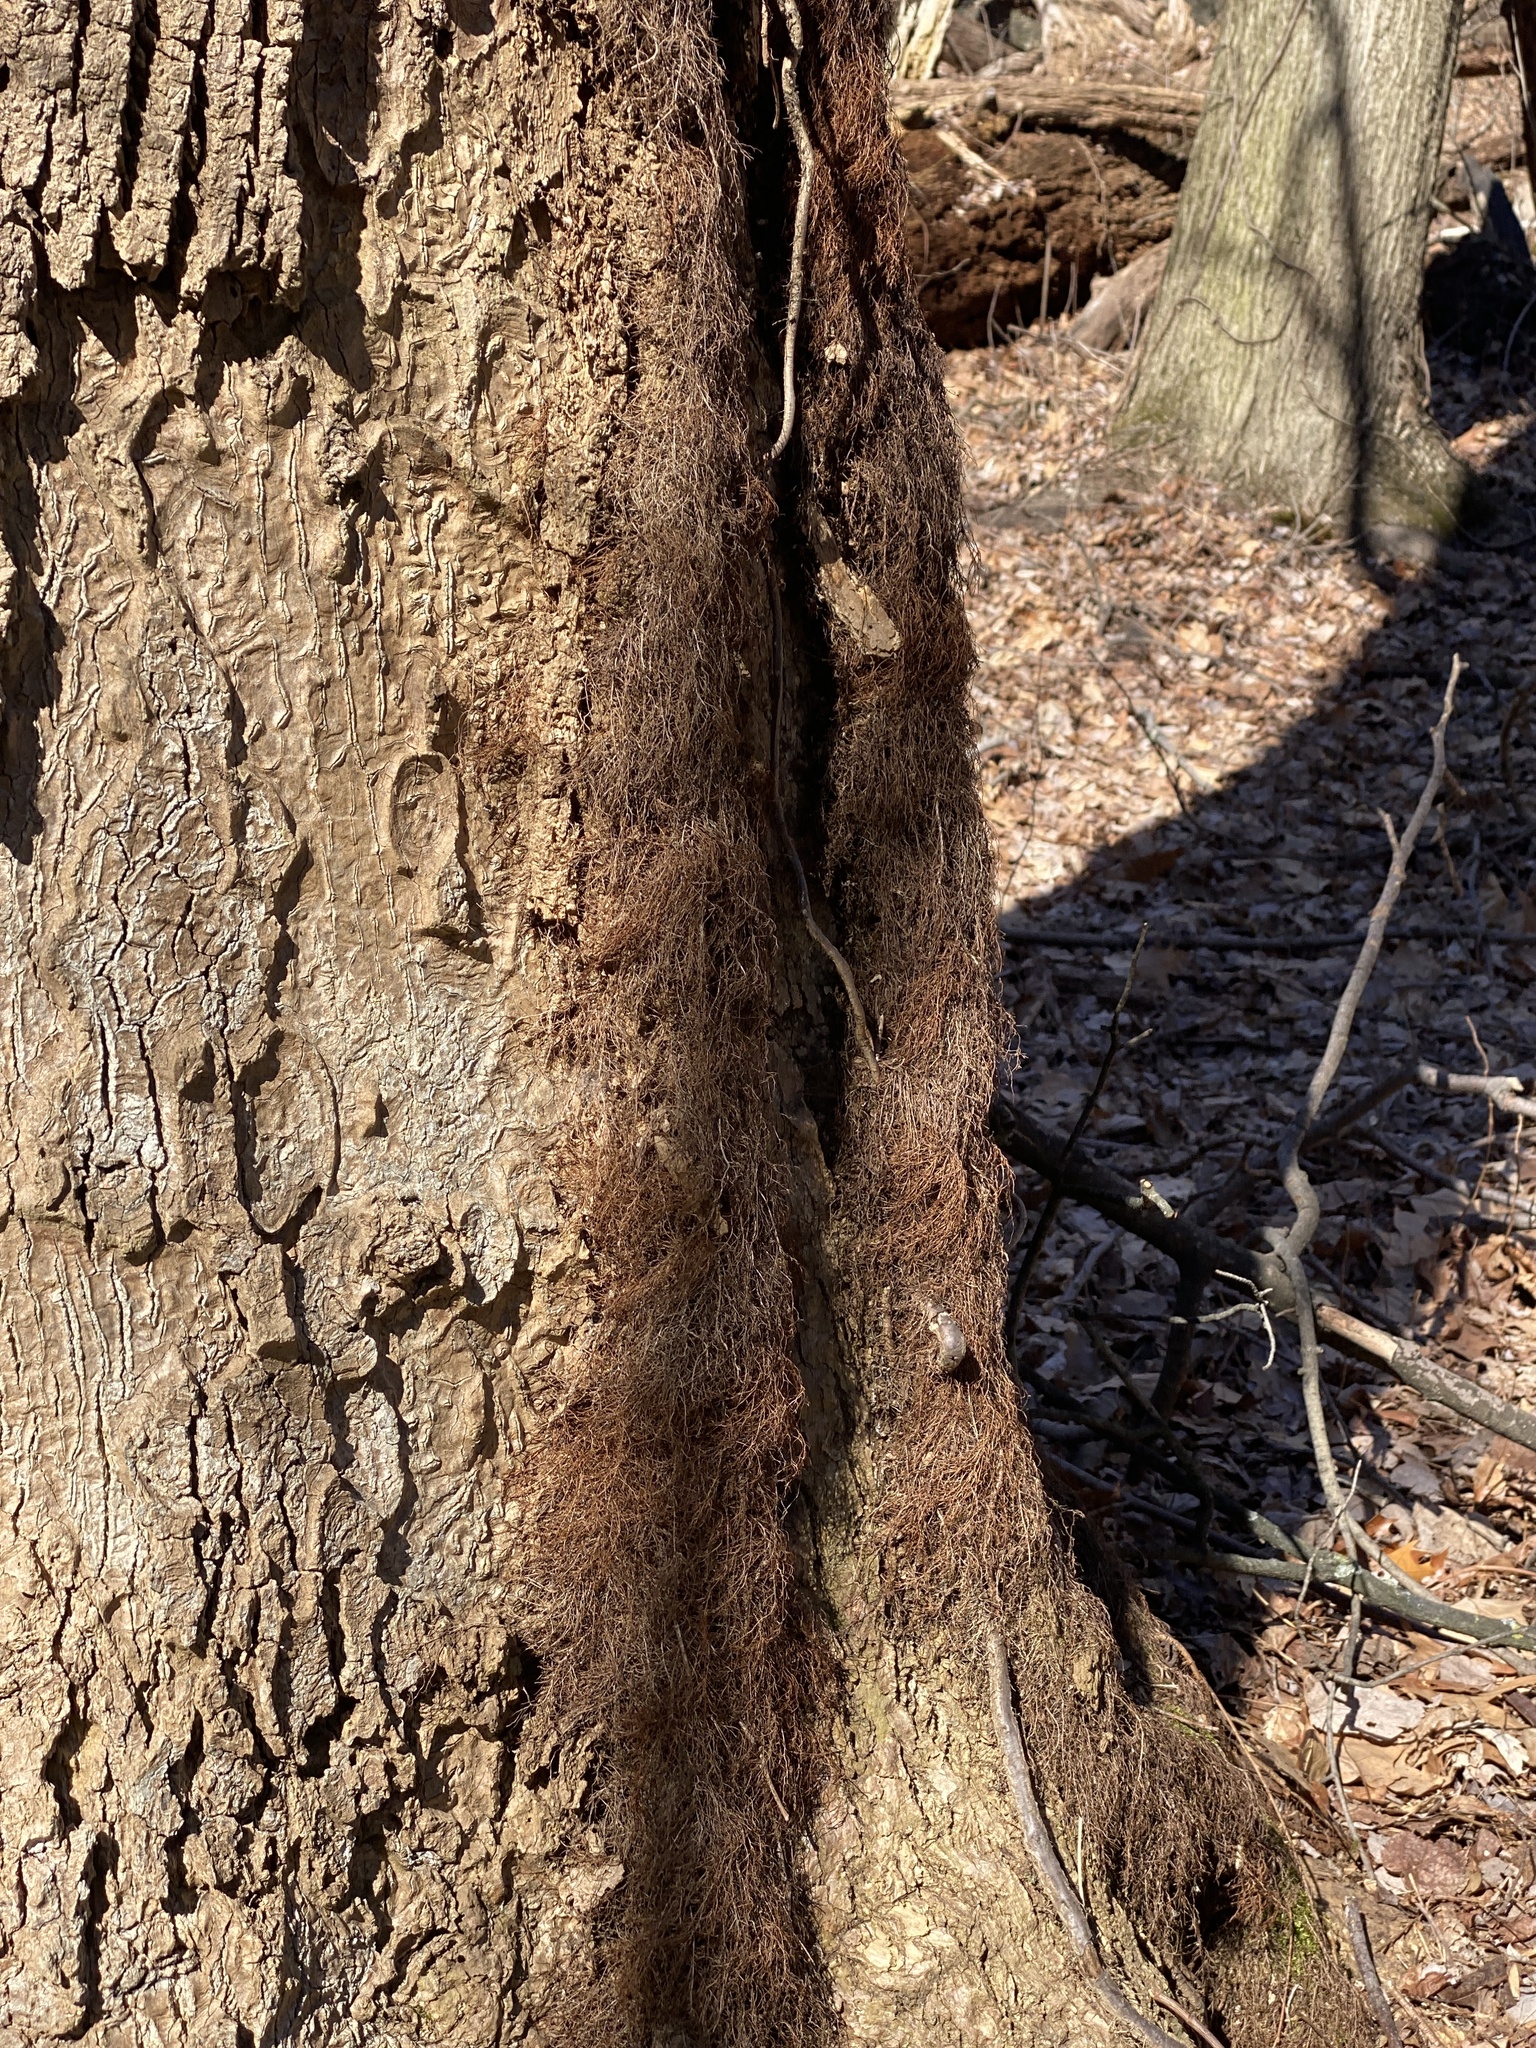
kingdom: Plantae
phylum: Tracheophyta
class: Magnoliopsida
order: Sapindales
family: Anacardiaceae
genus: Toxicodendron
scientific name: Toxicodendron radicans
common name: Poison ivy
